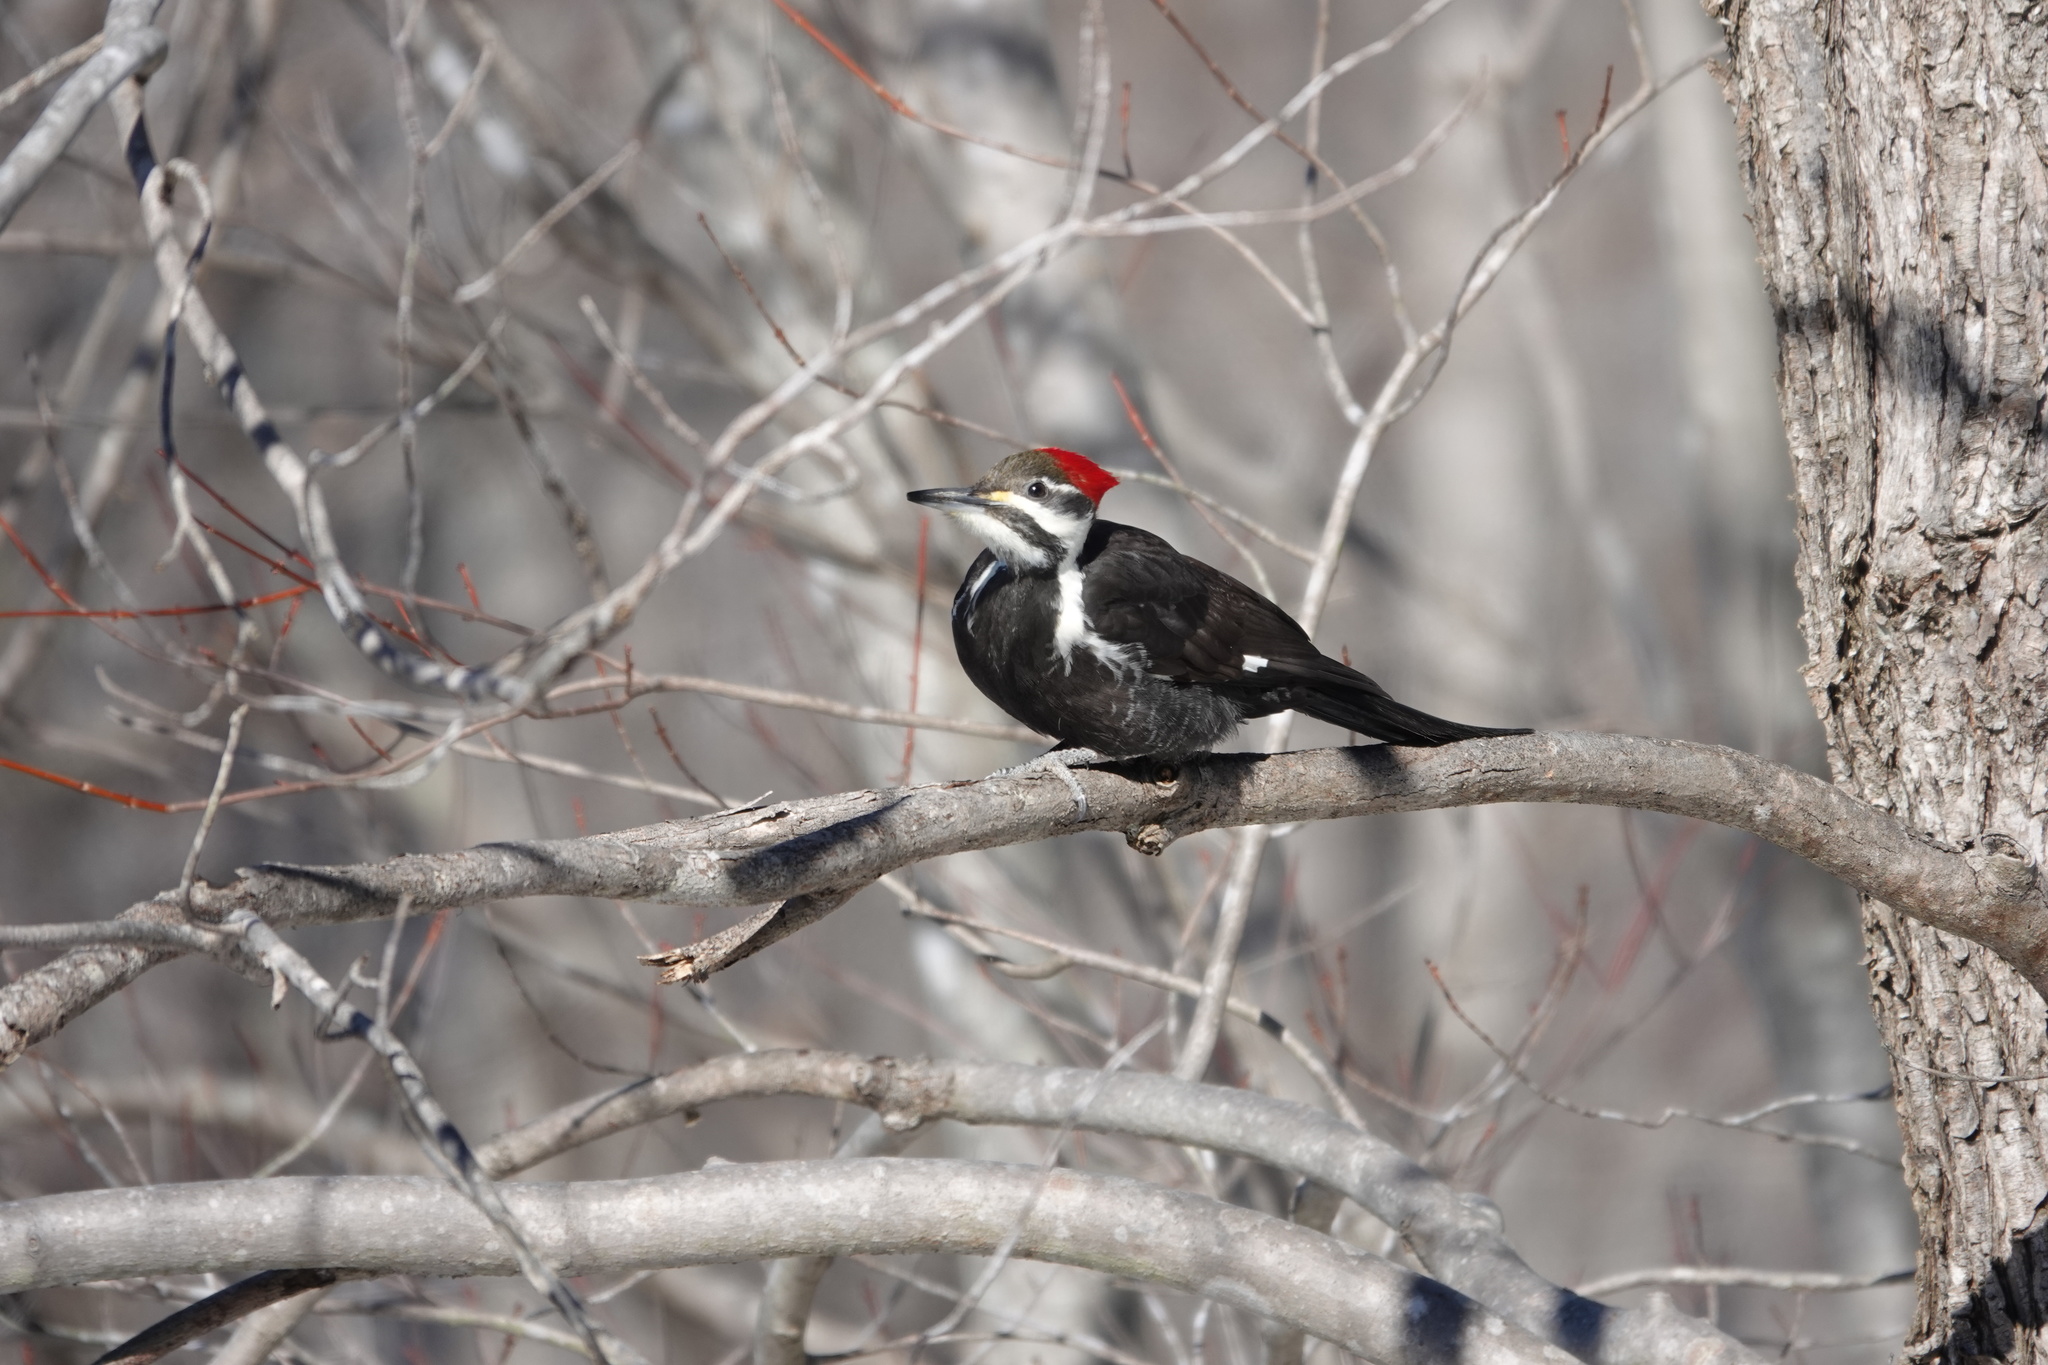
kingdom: Animalia
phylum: Chordata
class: Aves
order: Piciformes
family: Picidae
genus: Dryocopus
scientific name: Dryocopus pileatus
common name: Pileated woodpecker
